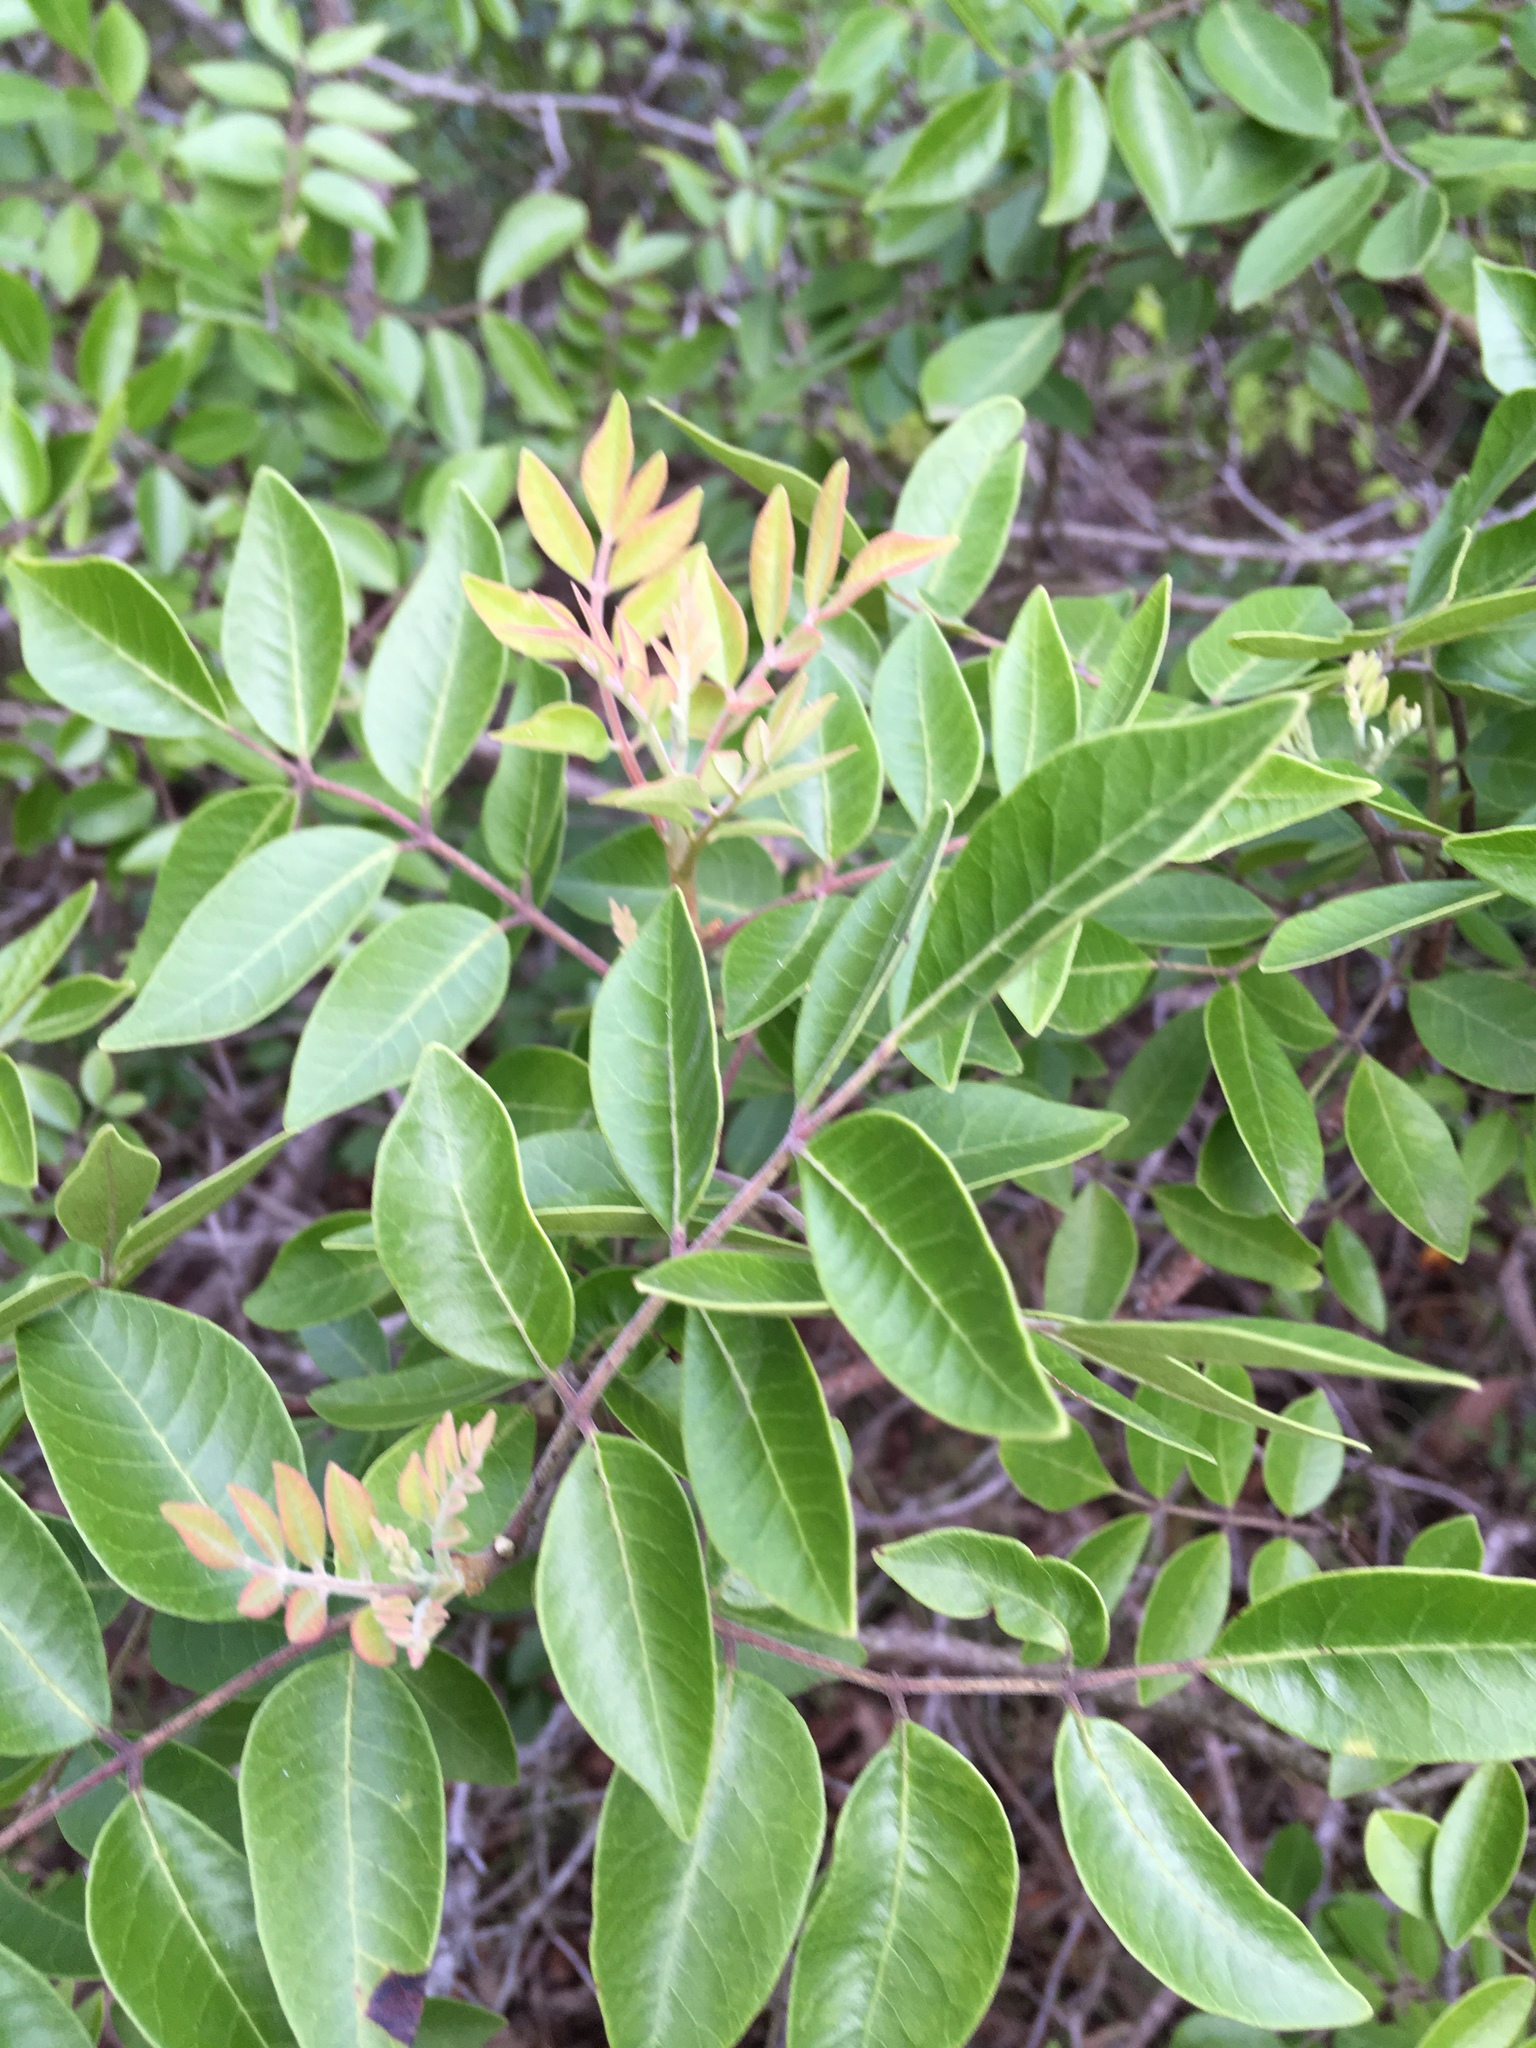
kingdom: Plantae
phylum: Tracheophyta
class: Magnoliopsida
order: Sapindales
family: Anacardiaceae
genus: Rhus
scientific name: Rhus virens
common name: Evergreen sumac
